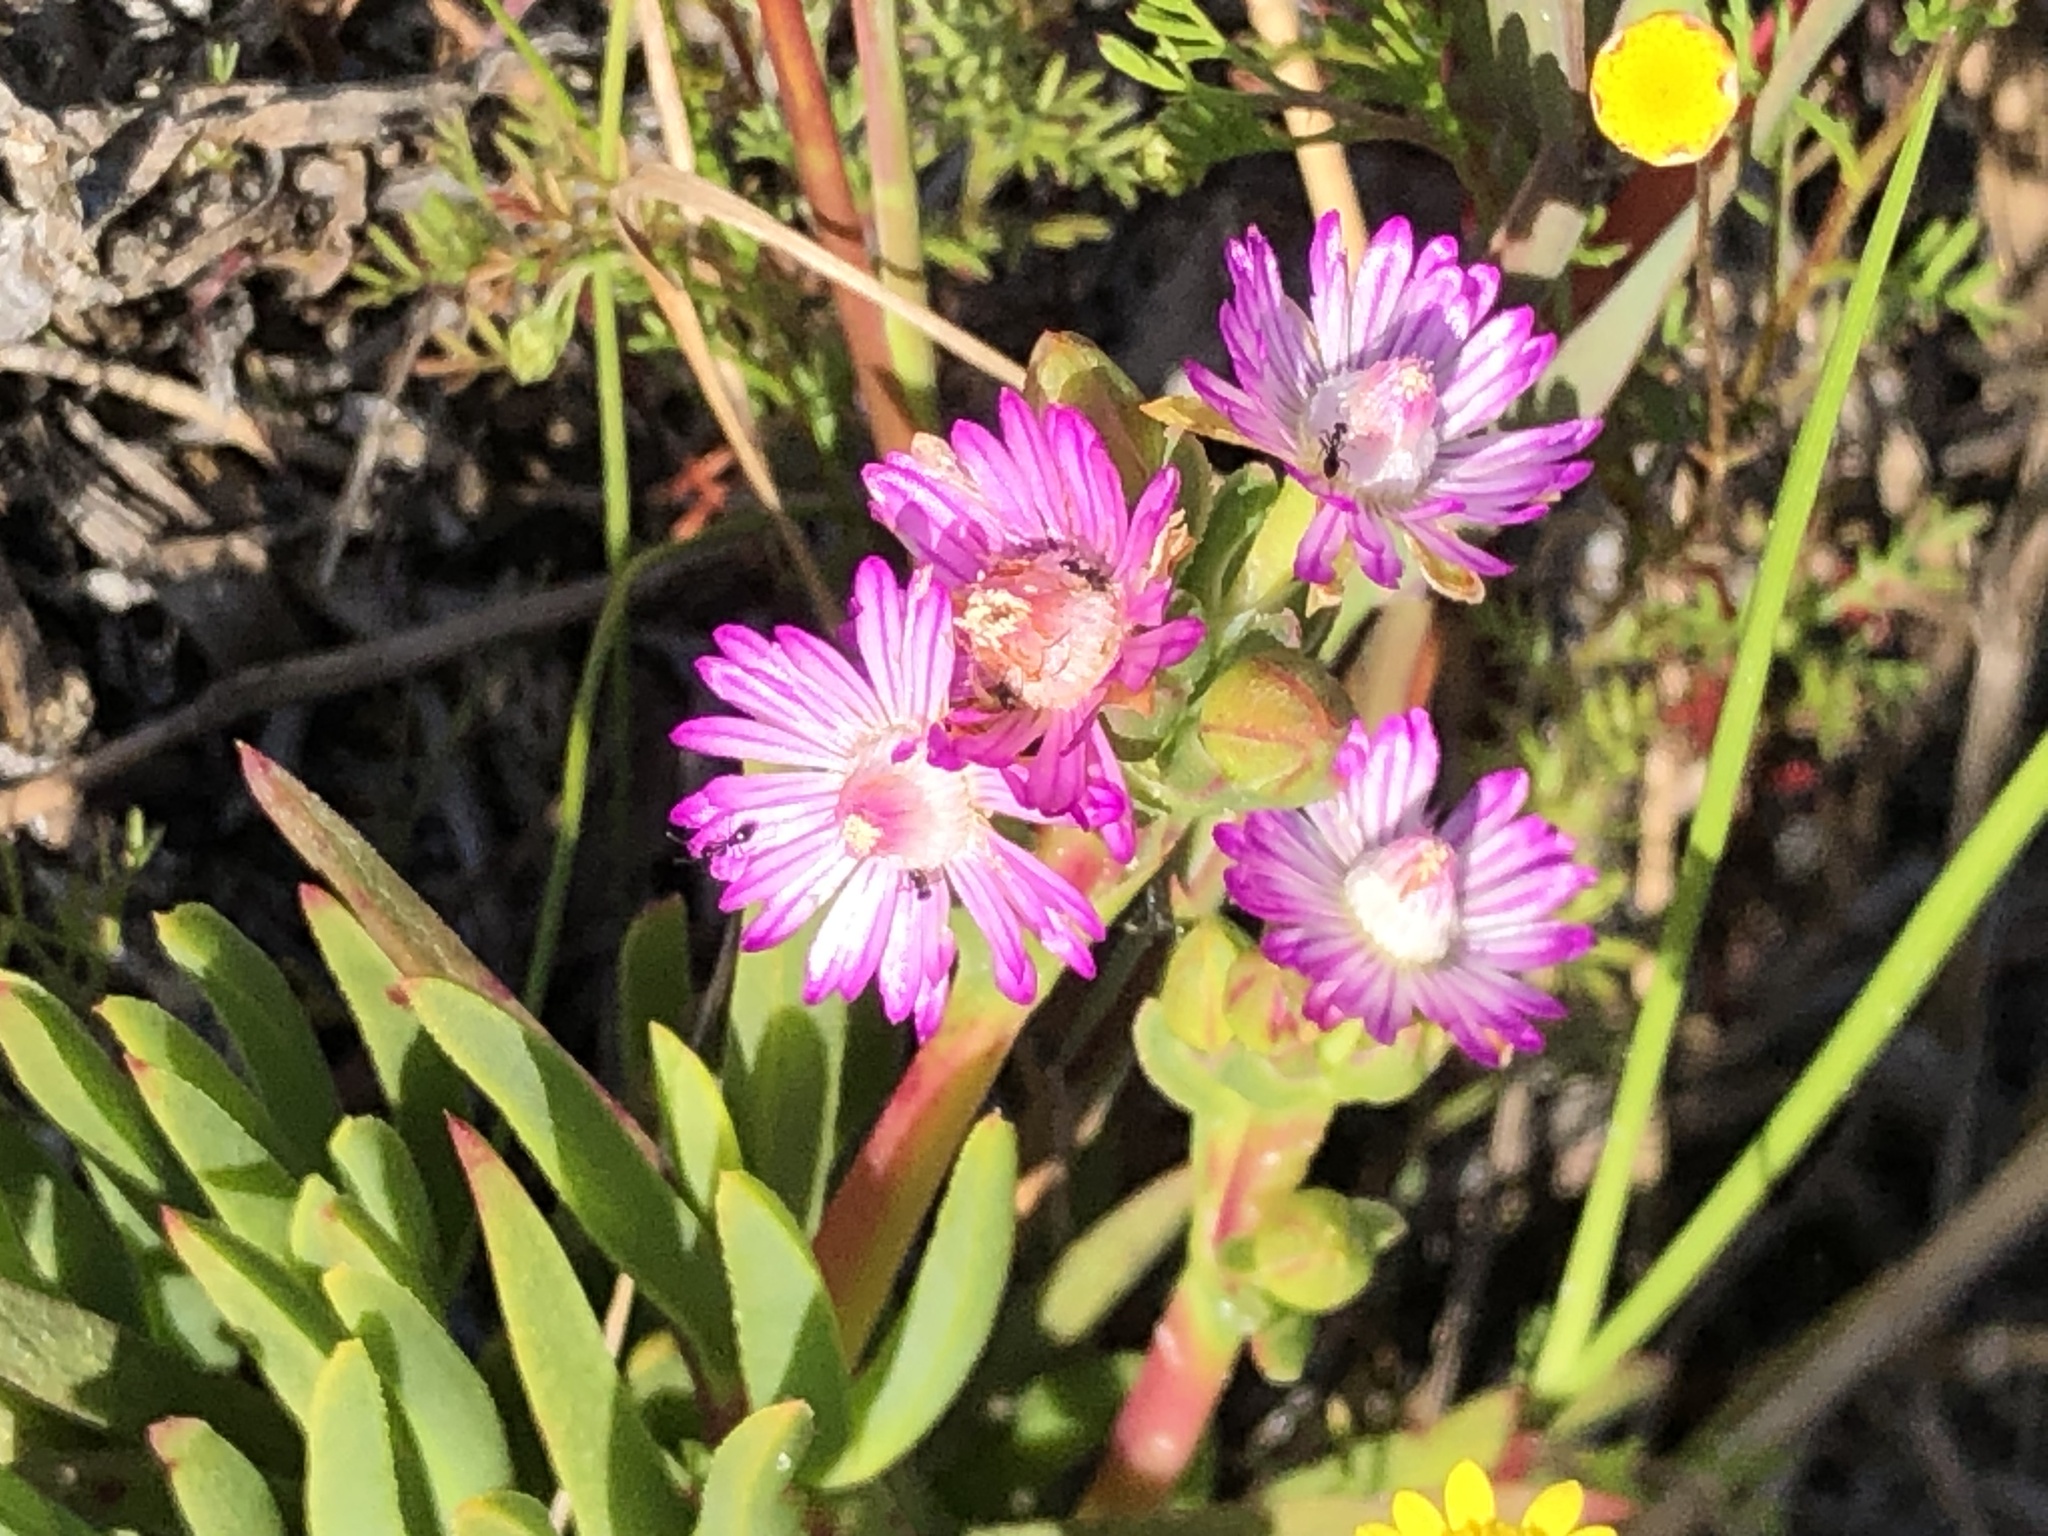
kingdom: Plantae
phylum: Tracheophyta
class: Magnoliopsida
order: Caryophyllales
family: Aizoaceae
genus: Ruschia
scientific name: Ruschia sarmentosa
